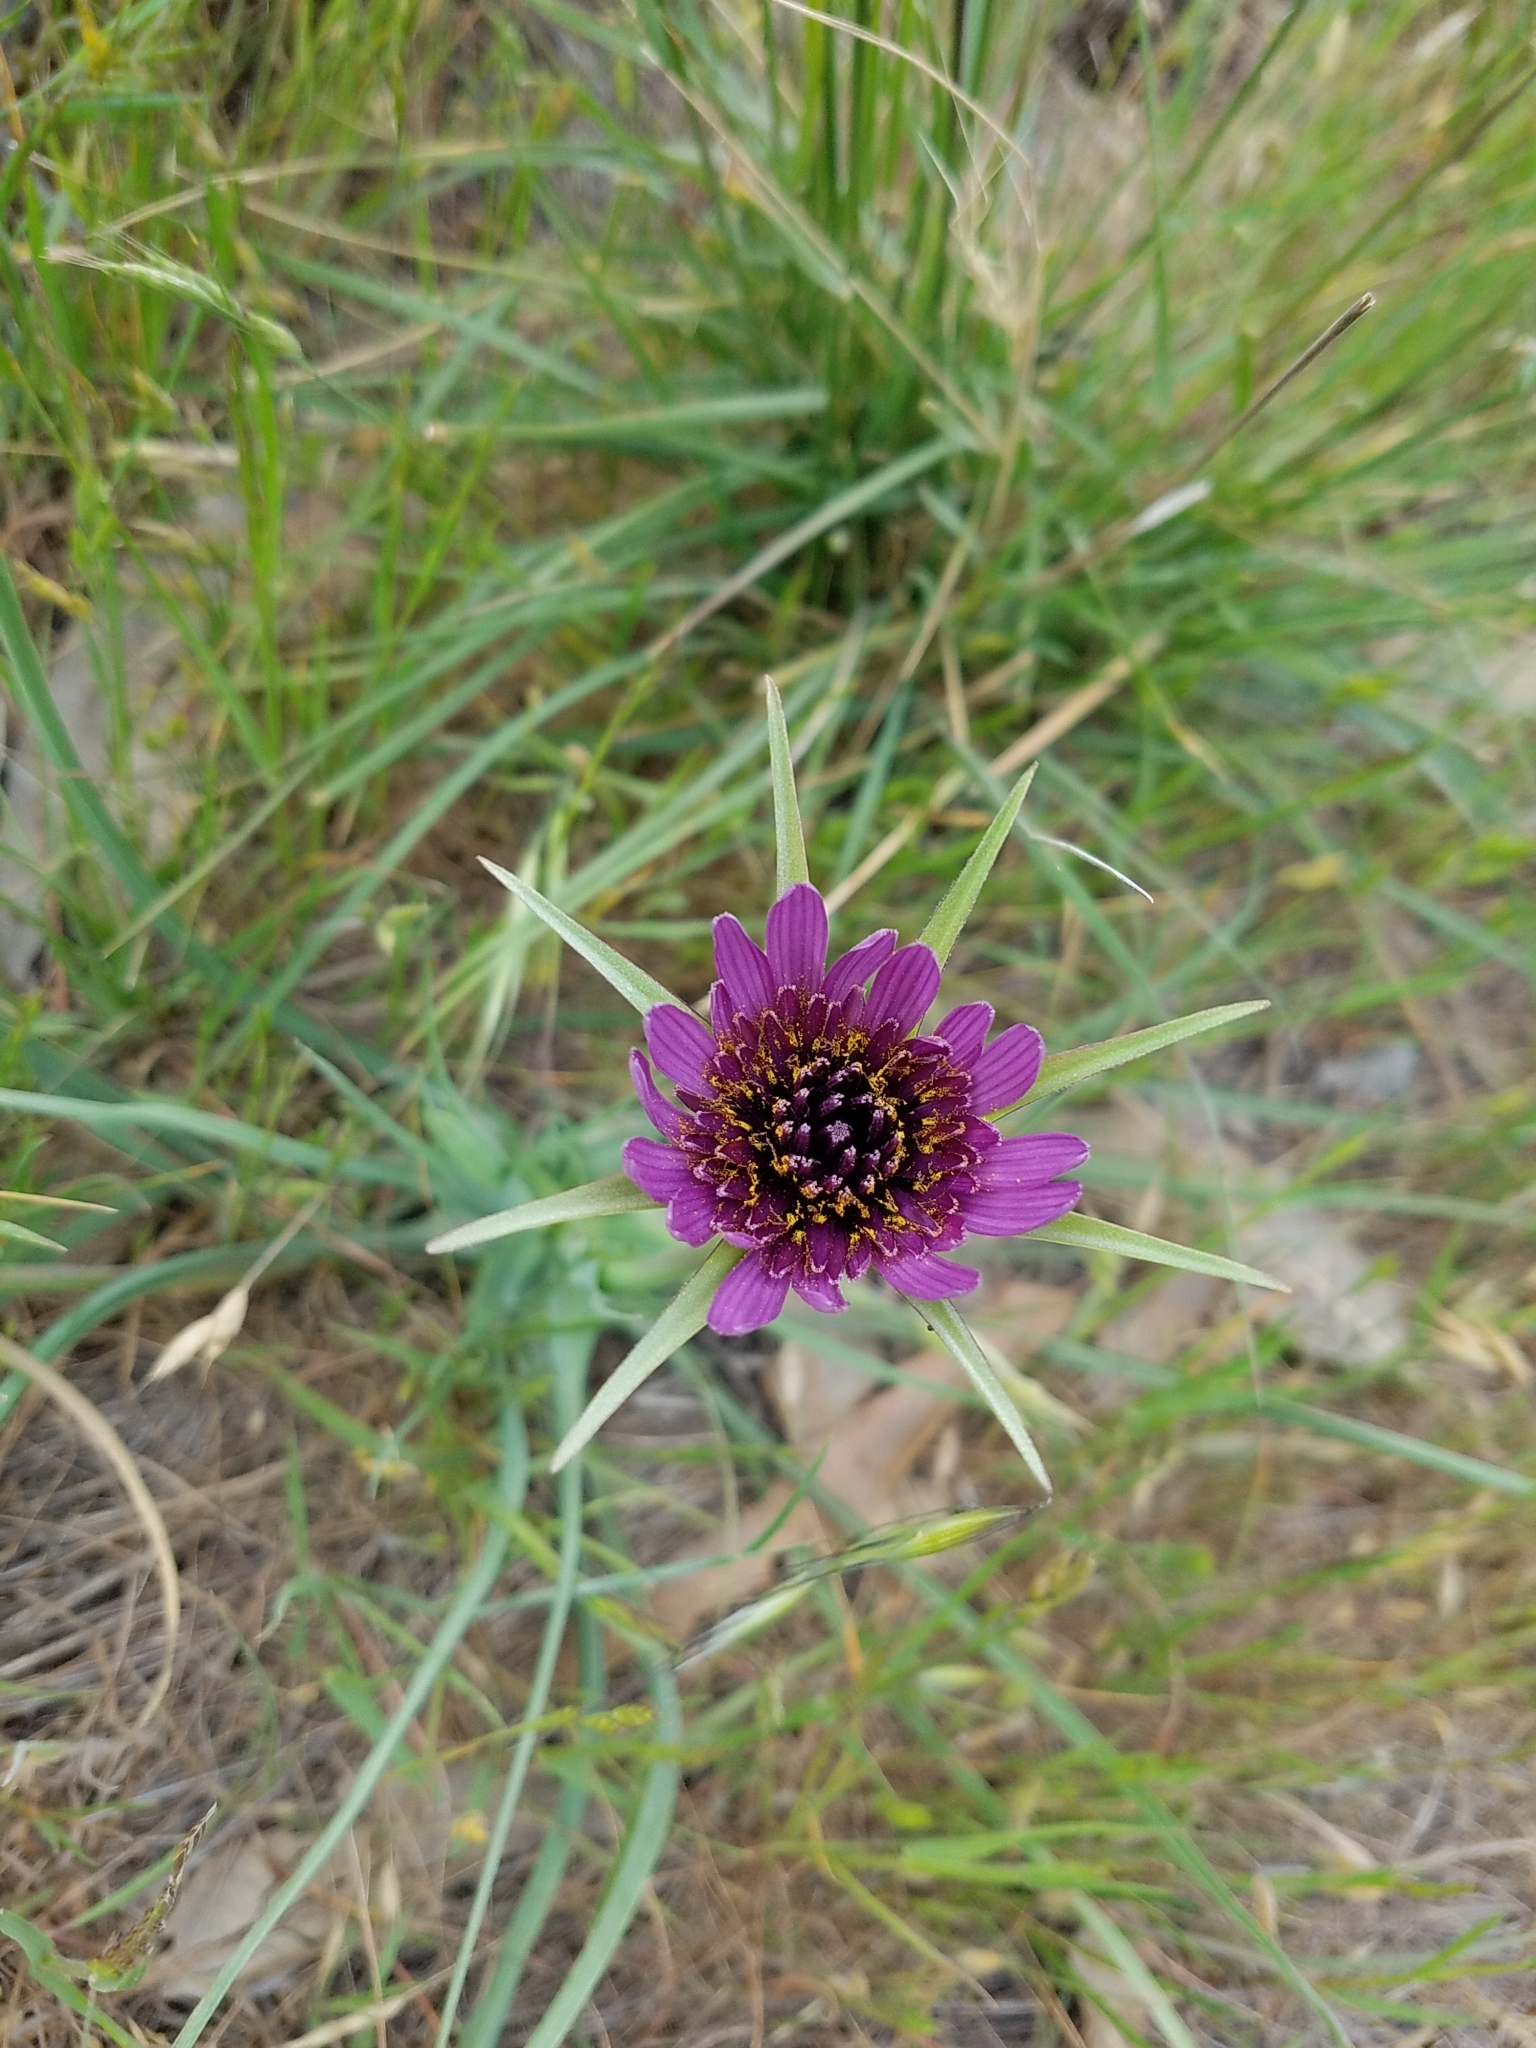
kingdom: Plantae
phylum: Tracheophyta
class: Magnoliopsida
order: Asterales
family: Asteraceae
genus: Tragopogon
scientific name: Tragopogon porrifolius
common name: Salsify
